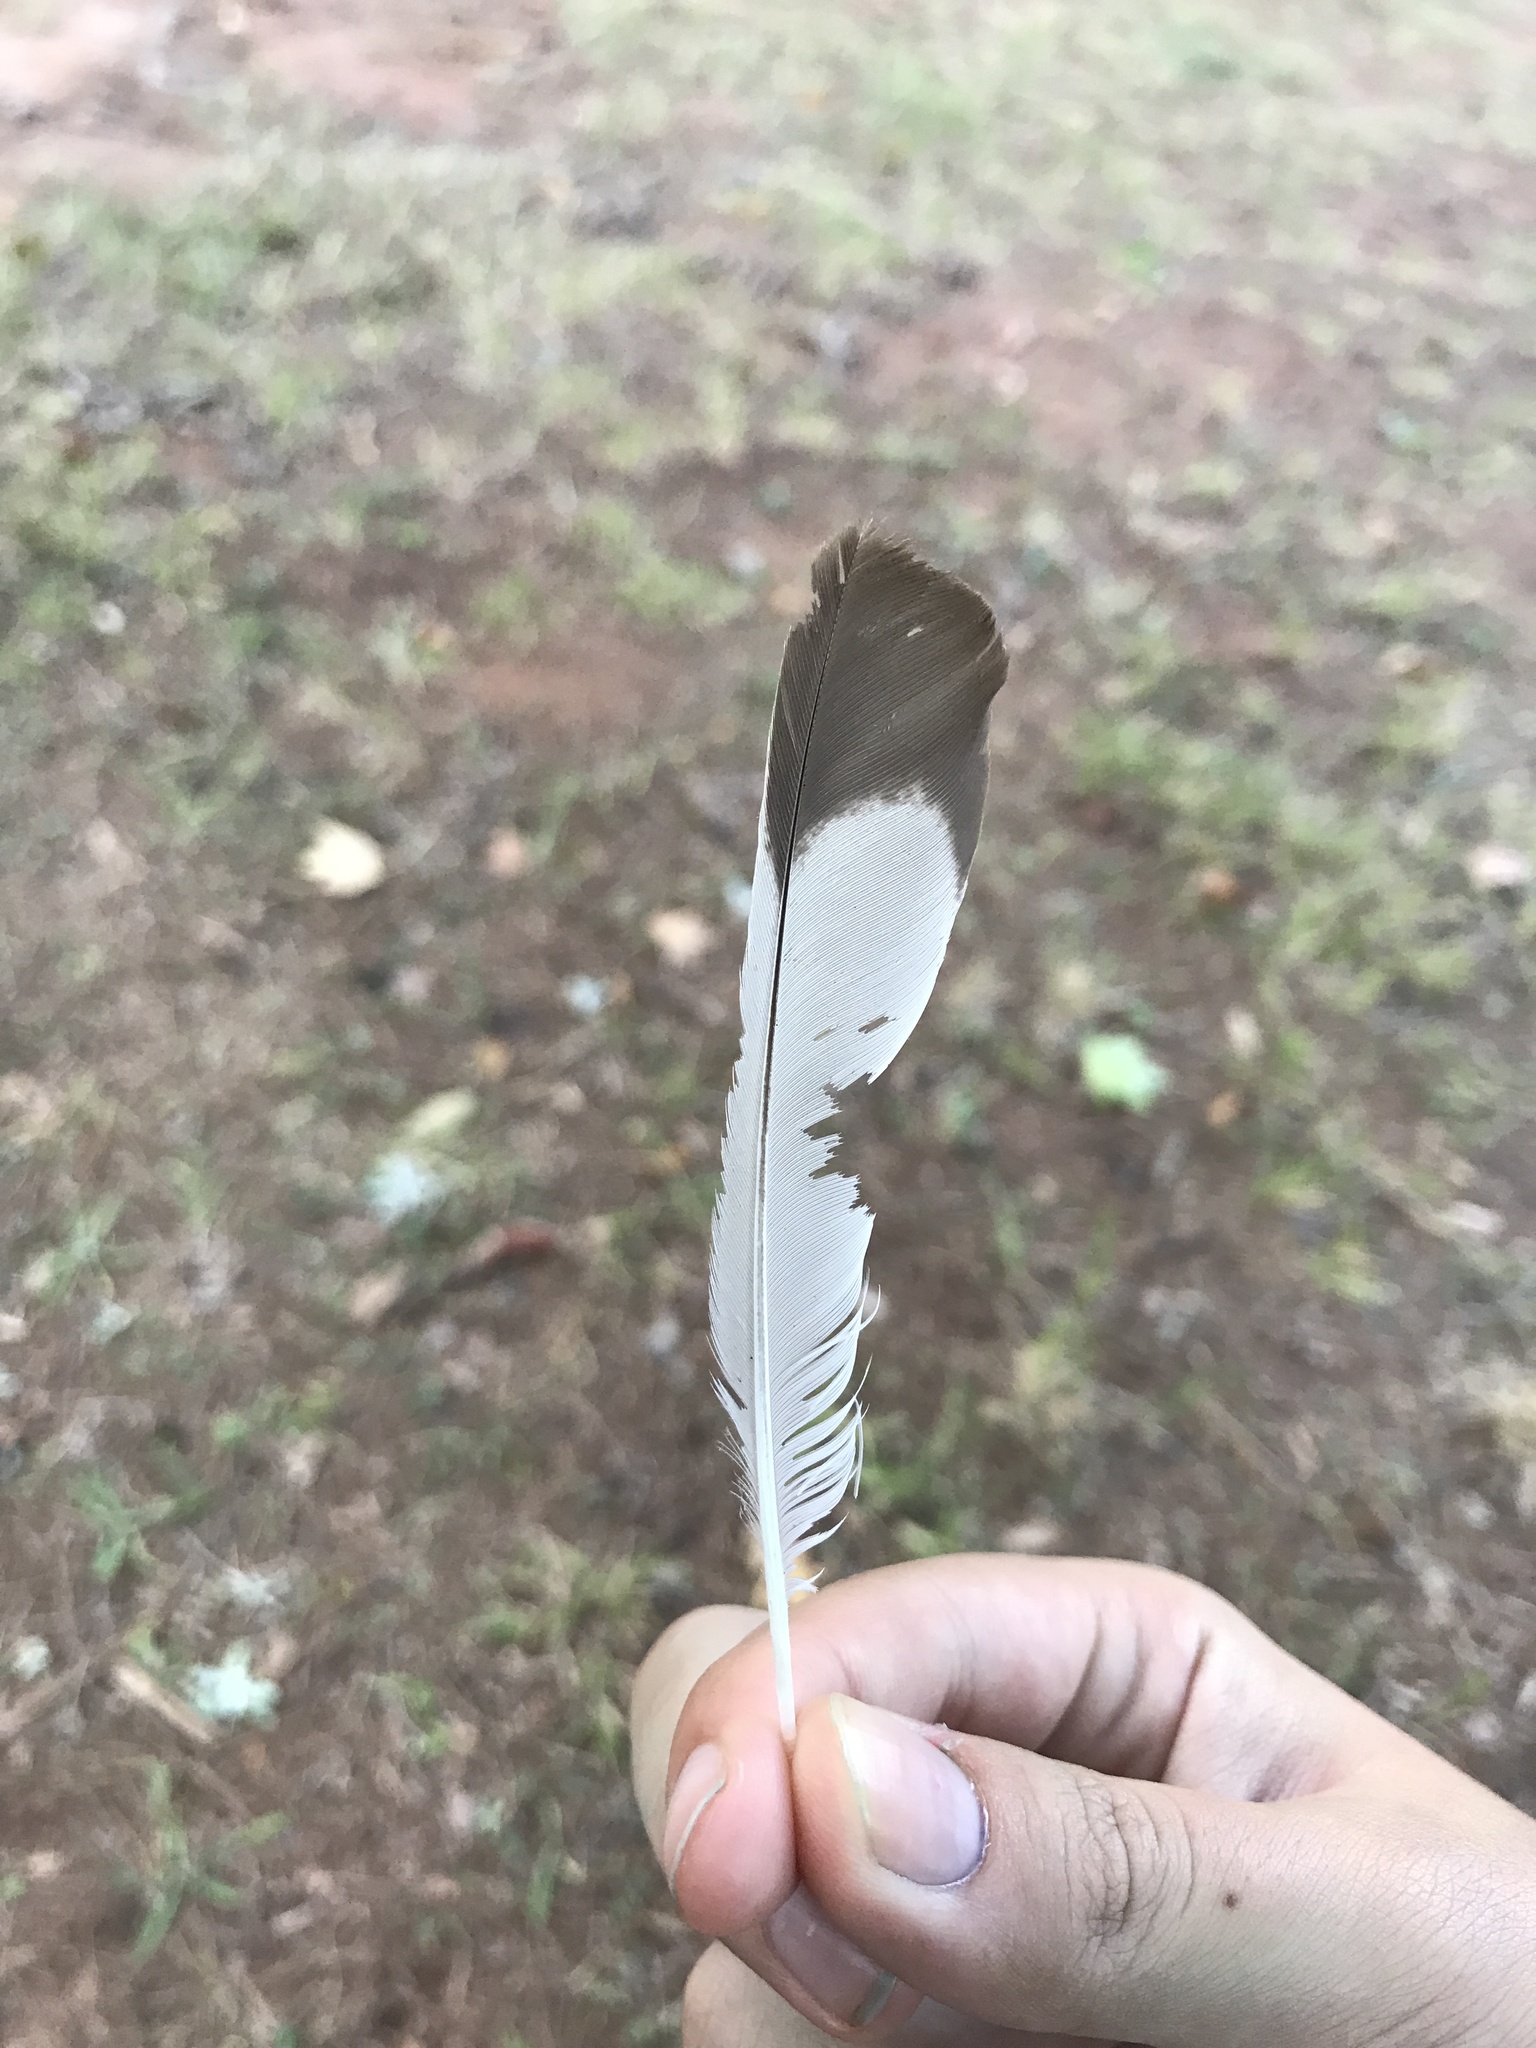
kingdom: Animalia
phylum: Chordata
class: Aves
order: Passeriformes
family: Mimidae
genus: Mimus
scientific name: Mimus polyglottos
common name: Northern mockingbird
